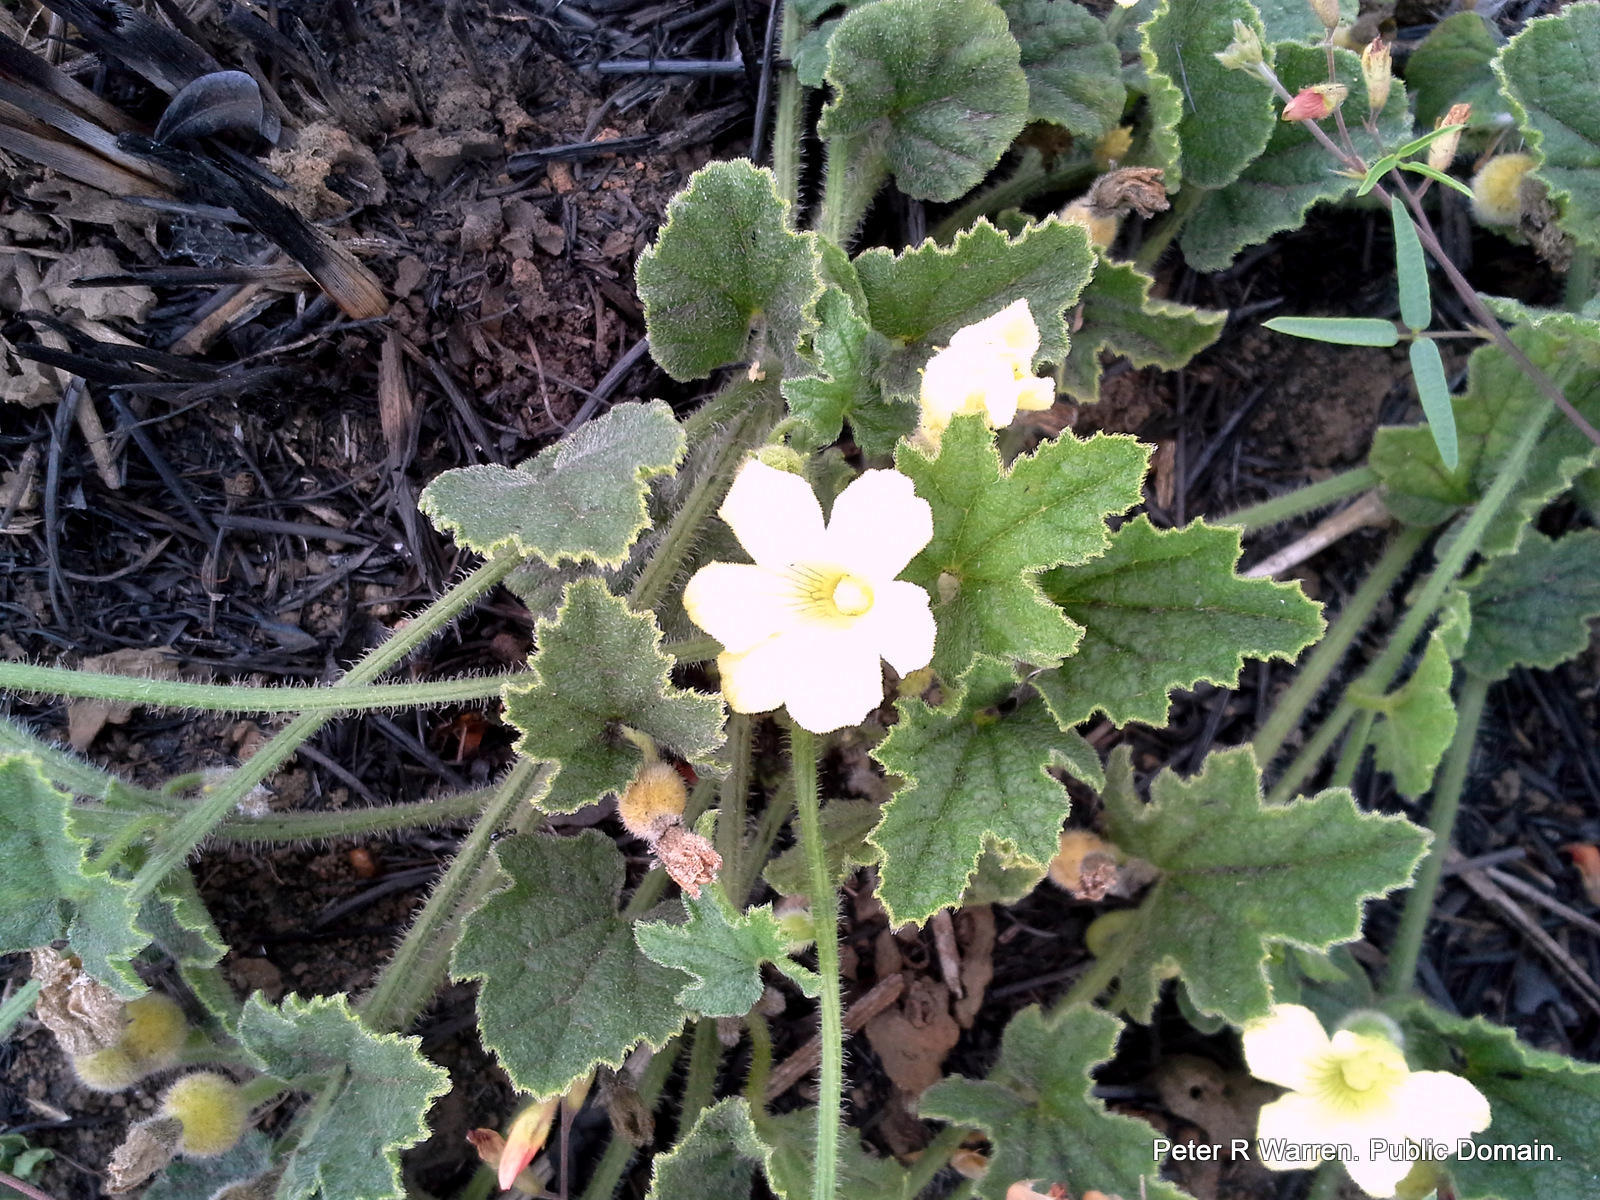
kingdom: Plantae
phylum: Tracheophyta
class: Magnoliopsida
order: Cucurbitales
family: Cucurbitaceae
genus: Cucumis
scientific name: Cucumis hirsutus
